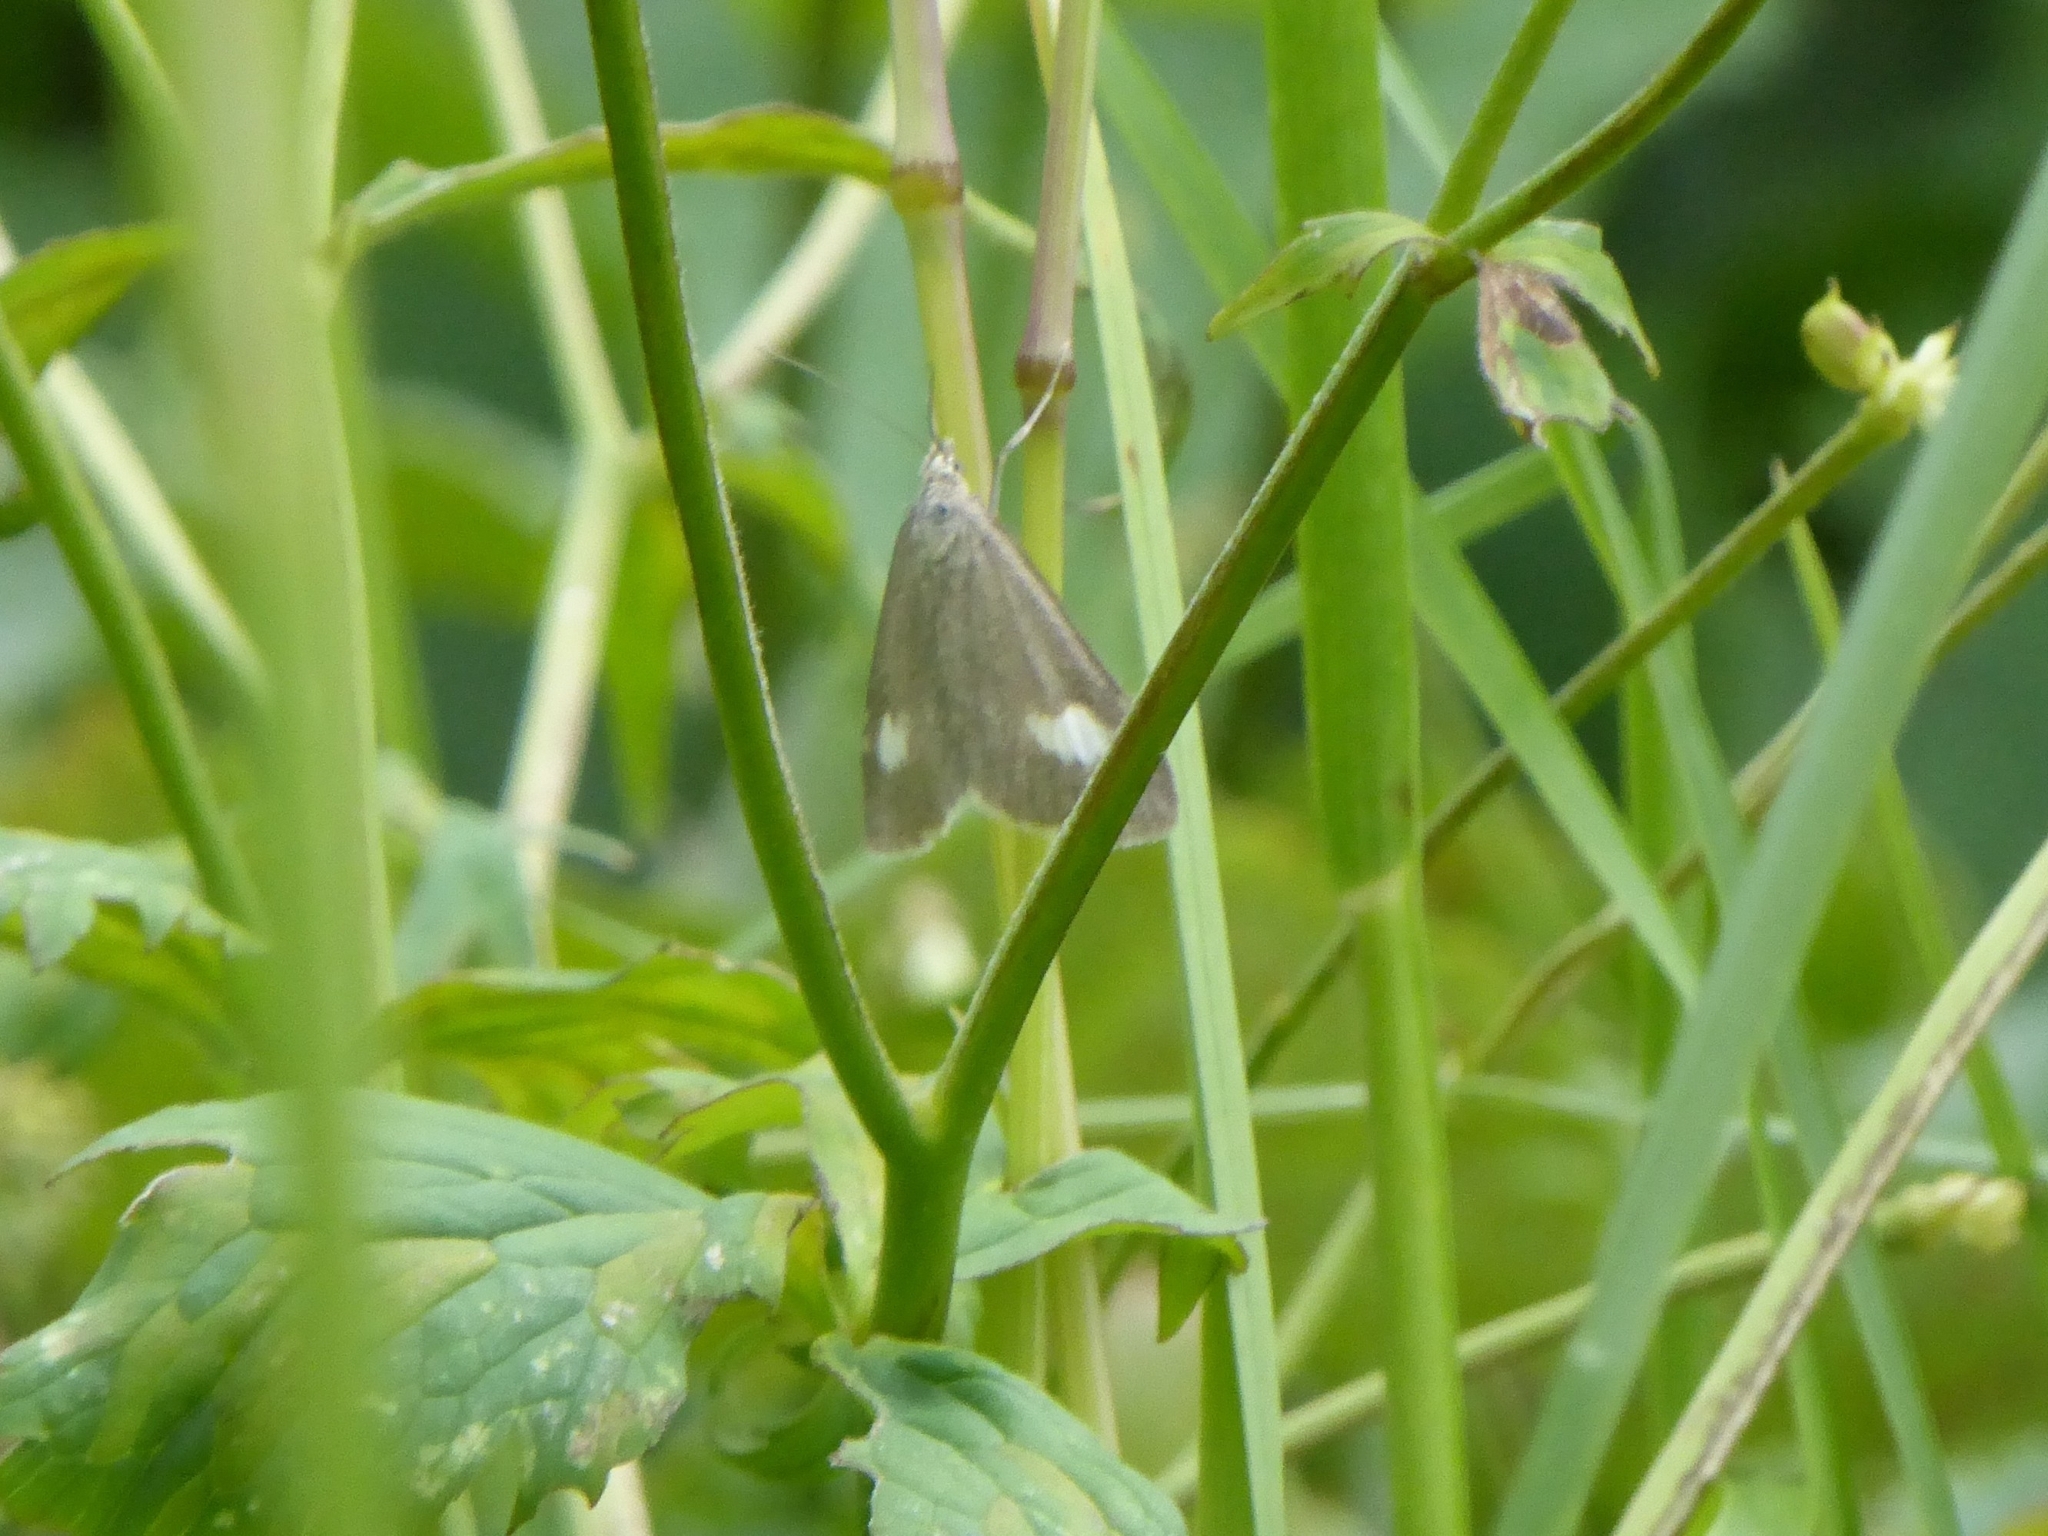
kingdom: Animalia
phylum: Arthropoda
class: Insecta
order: Lepidoptera
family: Crambidae
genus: Pyrausta
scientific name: Pyrausta alpinalis
